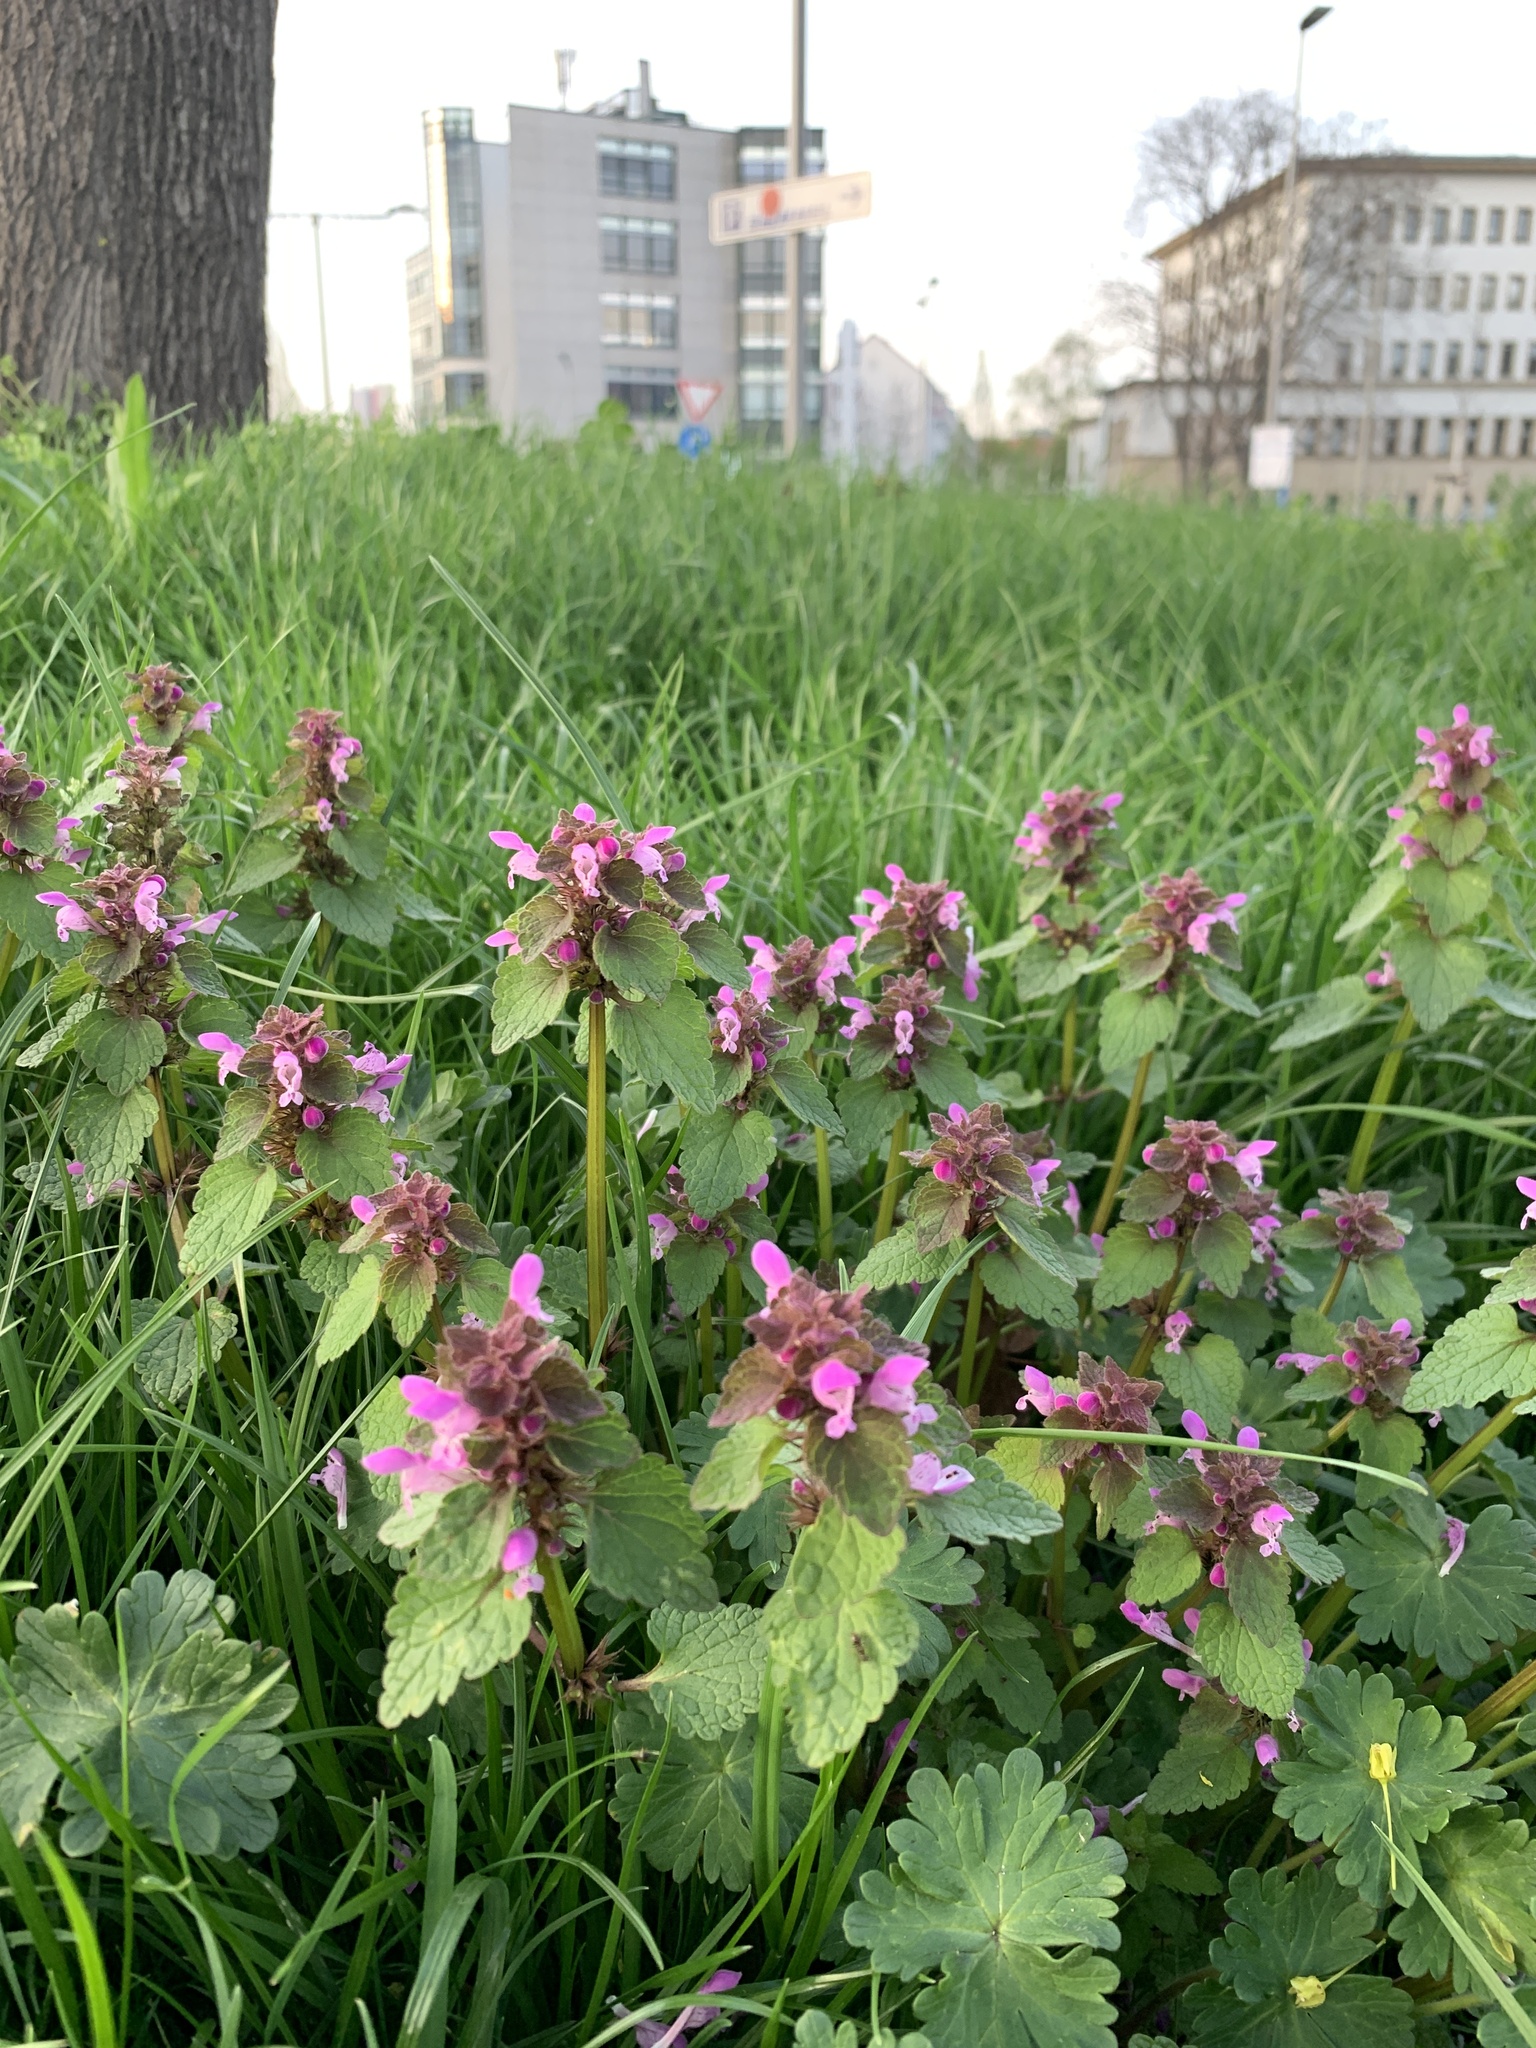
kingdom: Plantae
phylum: Tracheophyta
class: Magnoliopsida
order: Lamiales
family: Lamiaceae
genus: Lamium
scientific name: Lamium purpureum
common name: Red dead-nettle
